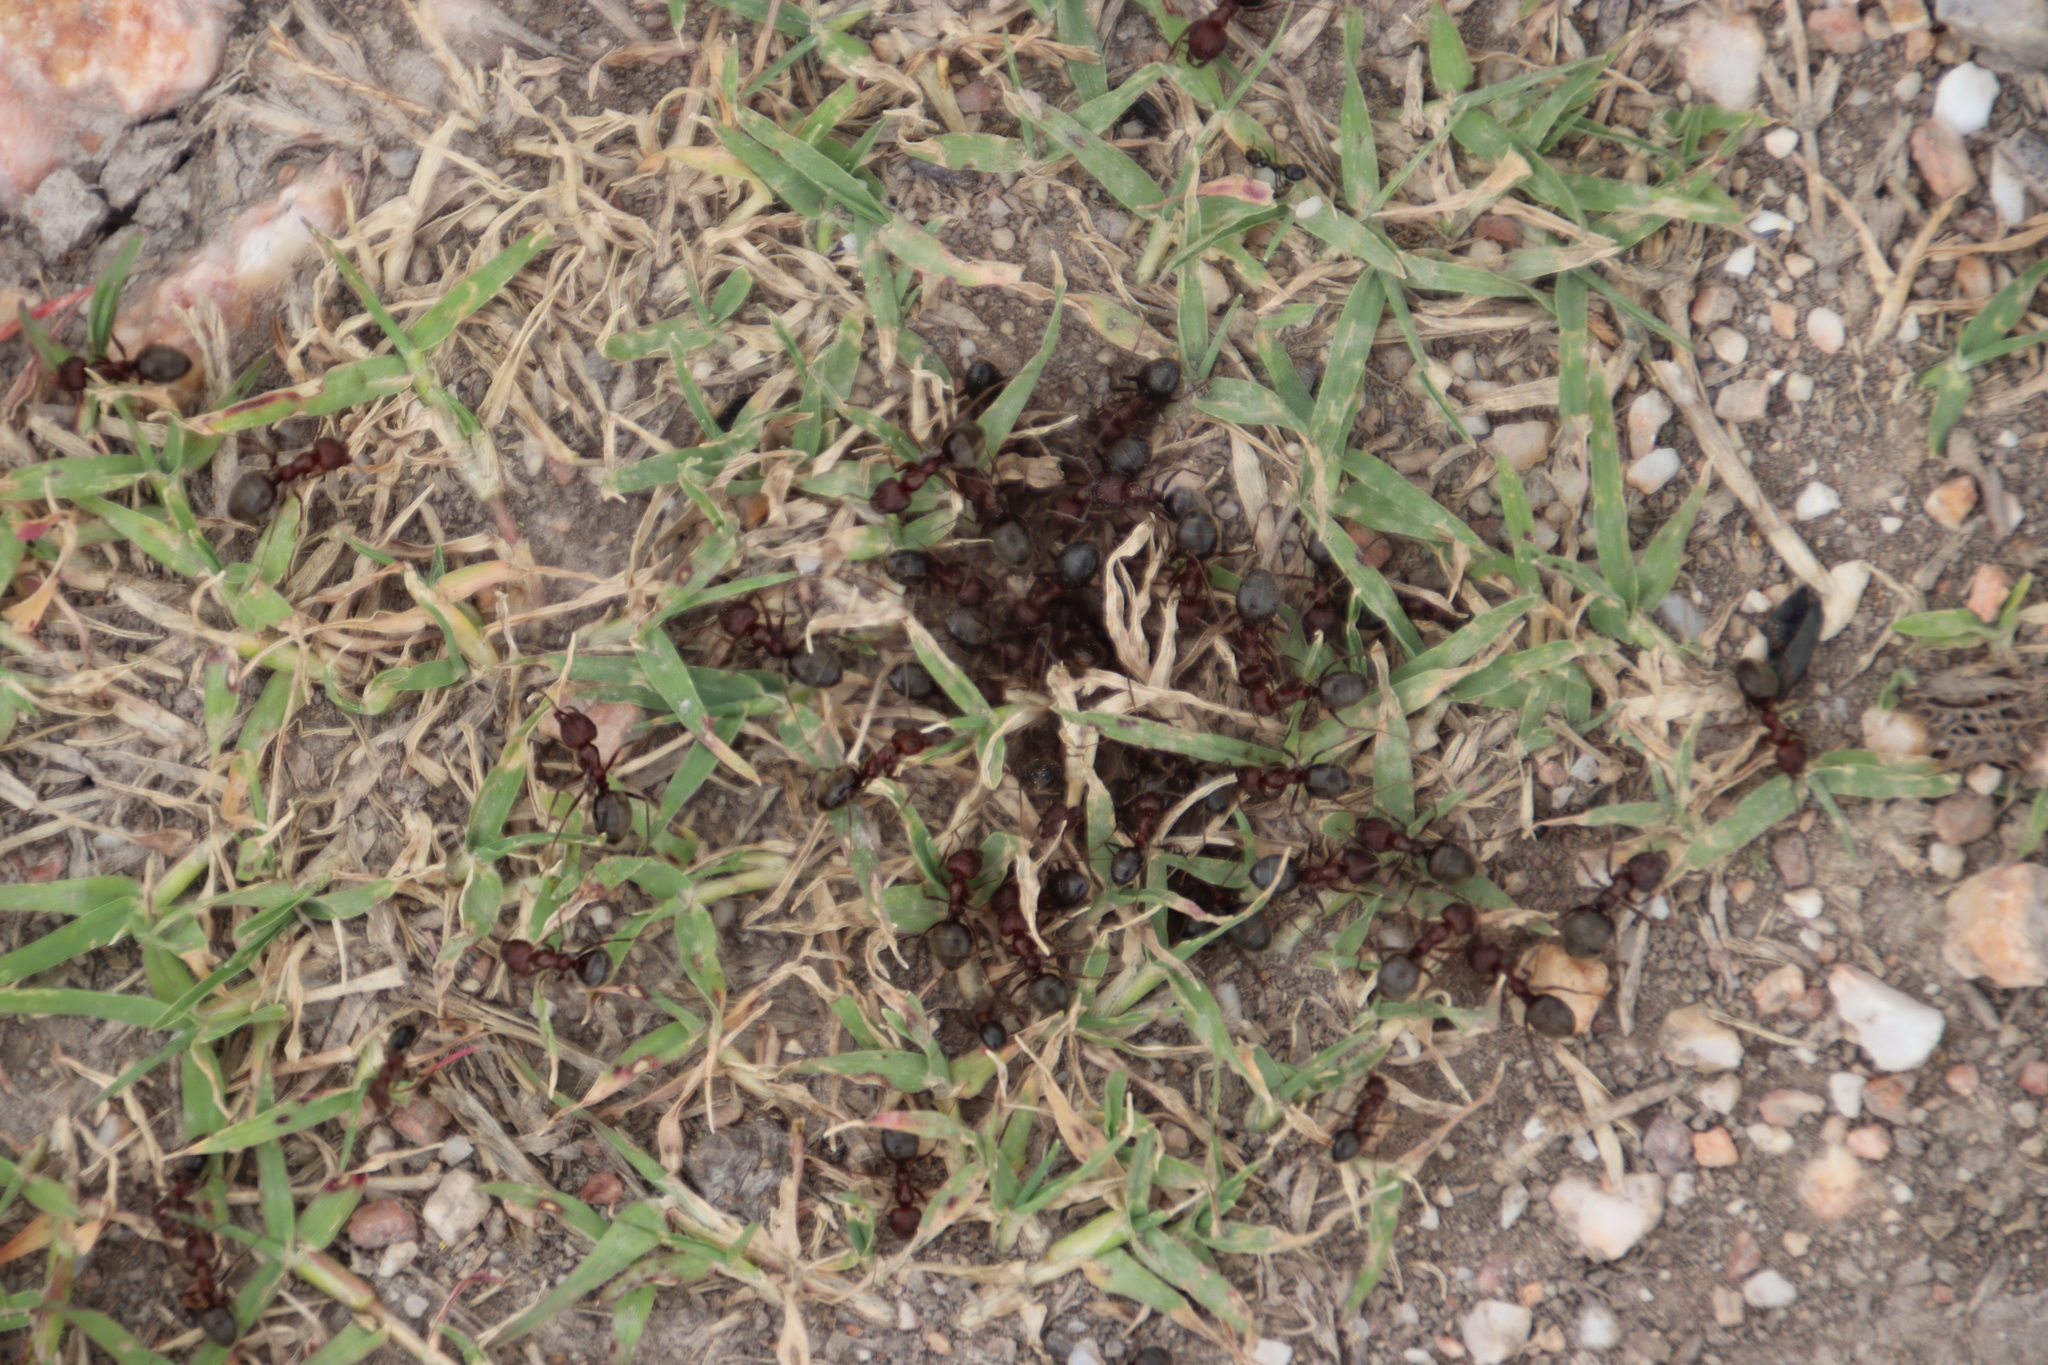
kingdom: Animalia
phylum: Arthropoda
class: Insecta
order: Hymenoptera
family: Formicidae
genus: Anoplolepis
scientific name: Anoplolepis steingroeveri
